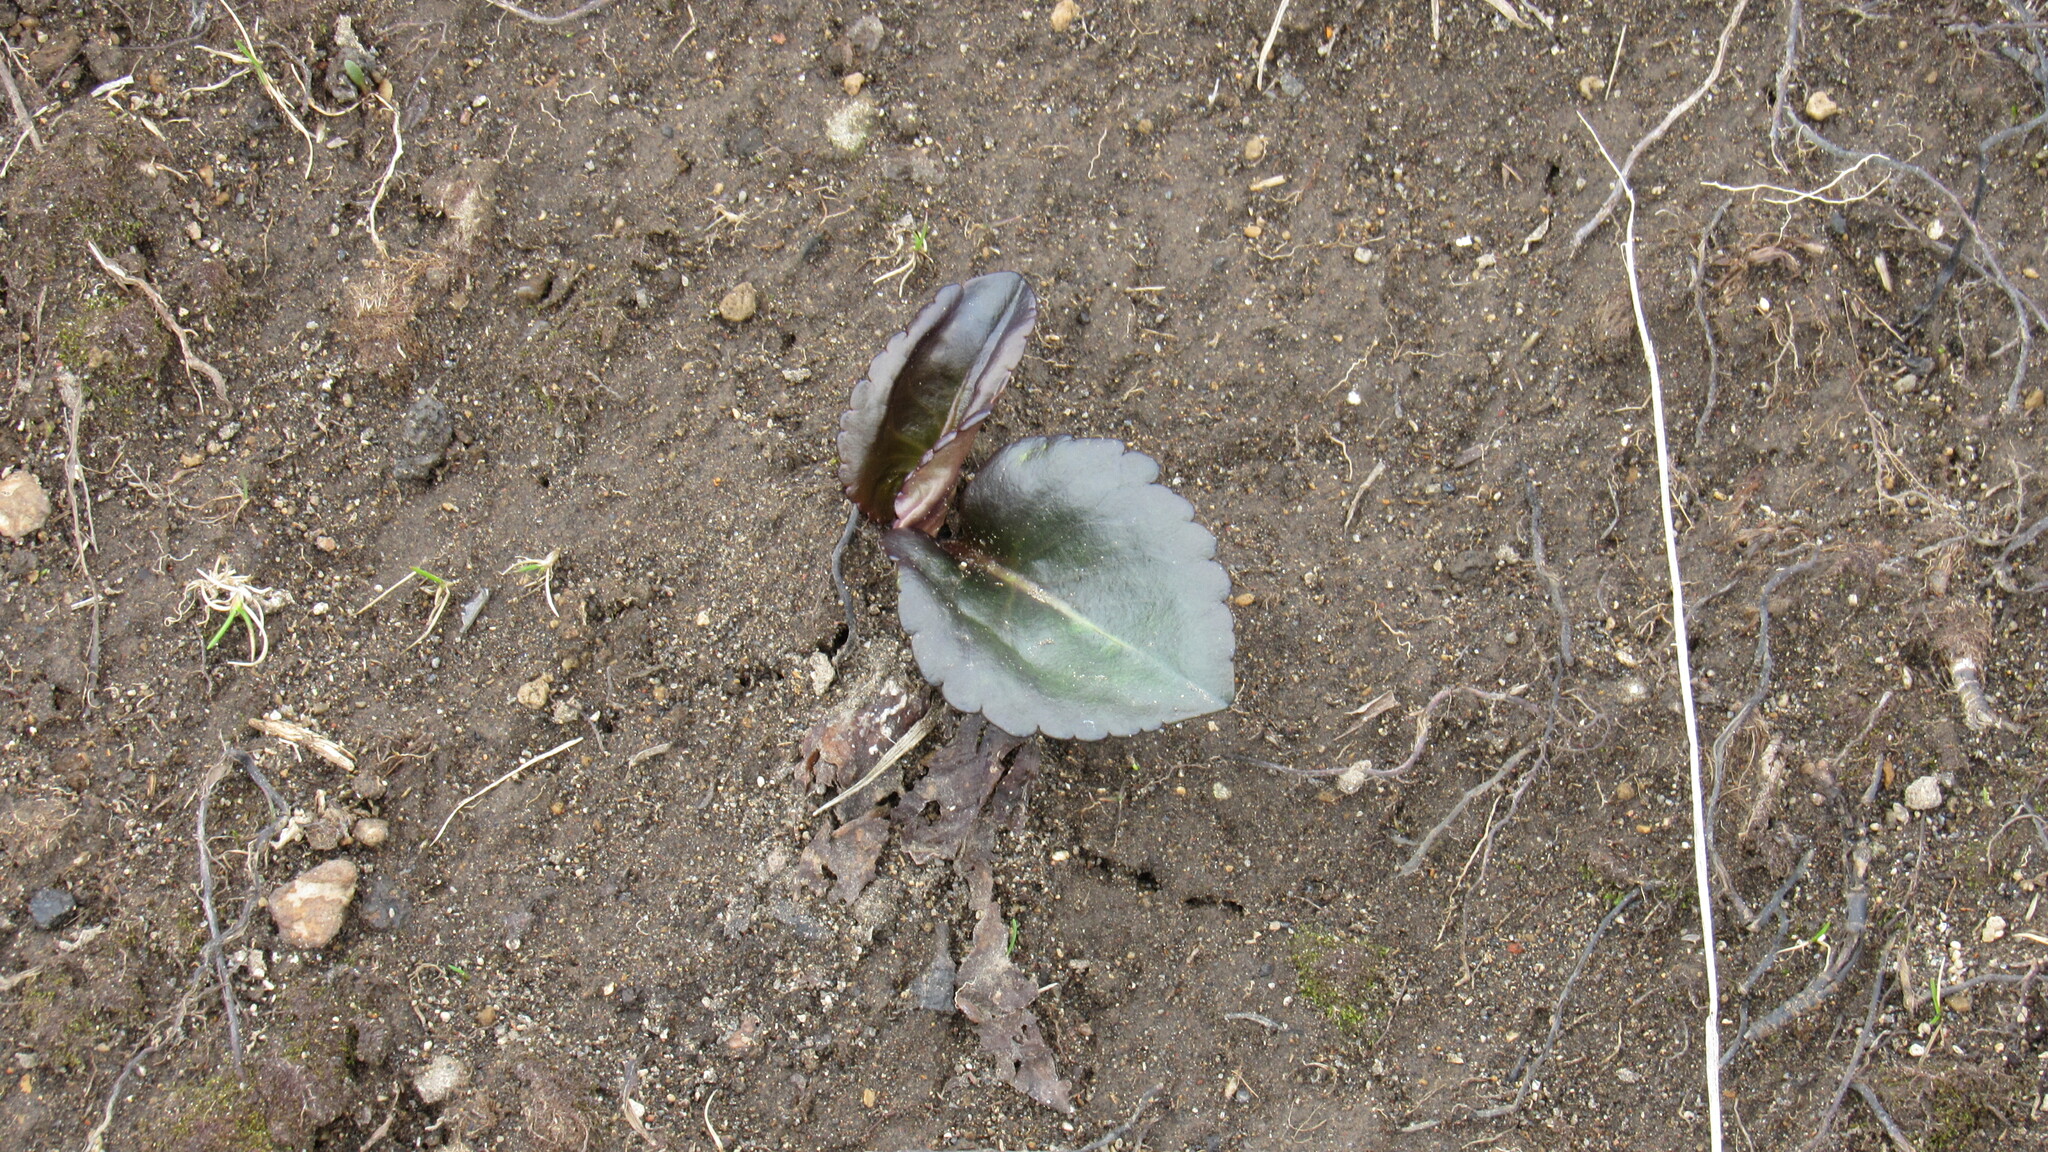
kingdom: Plantae
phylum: Tracheophyta
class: Magnoliopsida
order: Lamiales
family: Plantaginaceae
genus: Lagotis
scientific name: Lagotis glauca
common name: Glaucous weaselsnout
